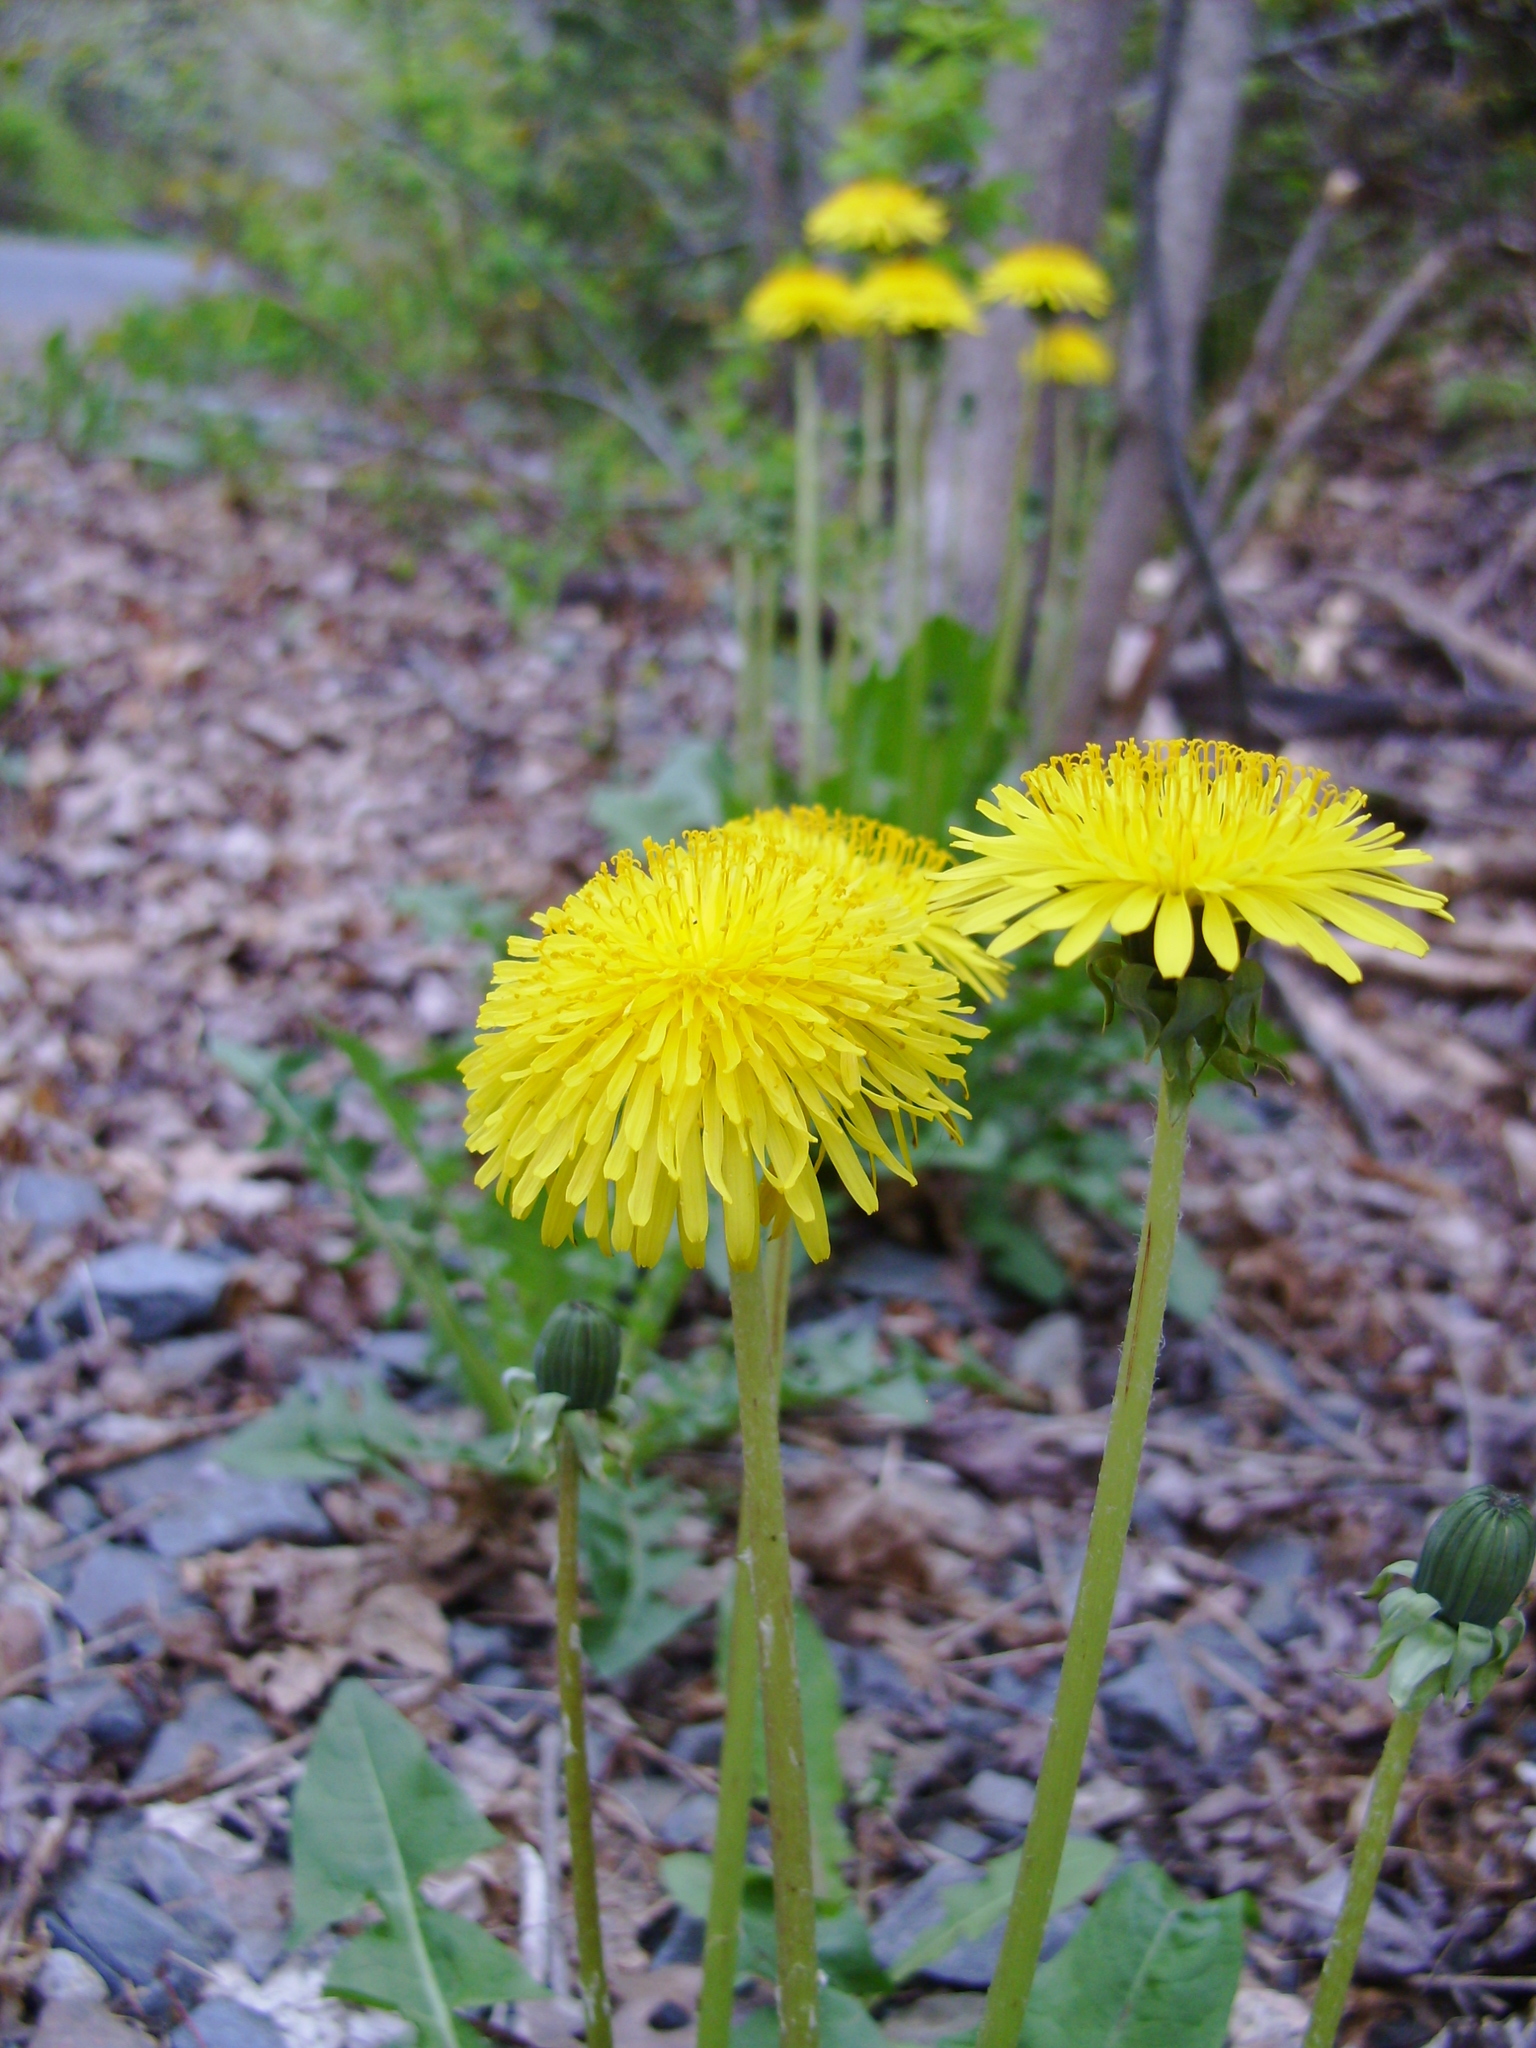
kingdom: Plantae
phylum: Tracheophyta
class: Magnoliopsida
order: Asterales
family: Asteraceae
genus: Taraxacum
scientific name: Taraxacum officinale
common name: Common dandelion
